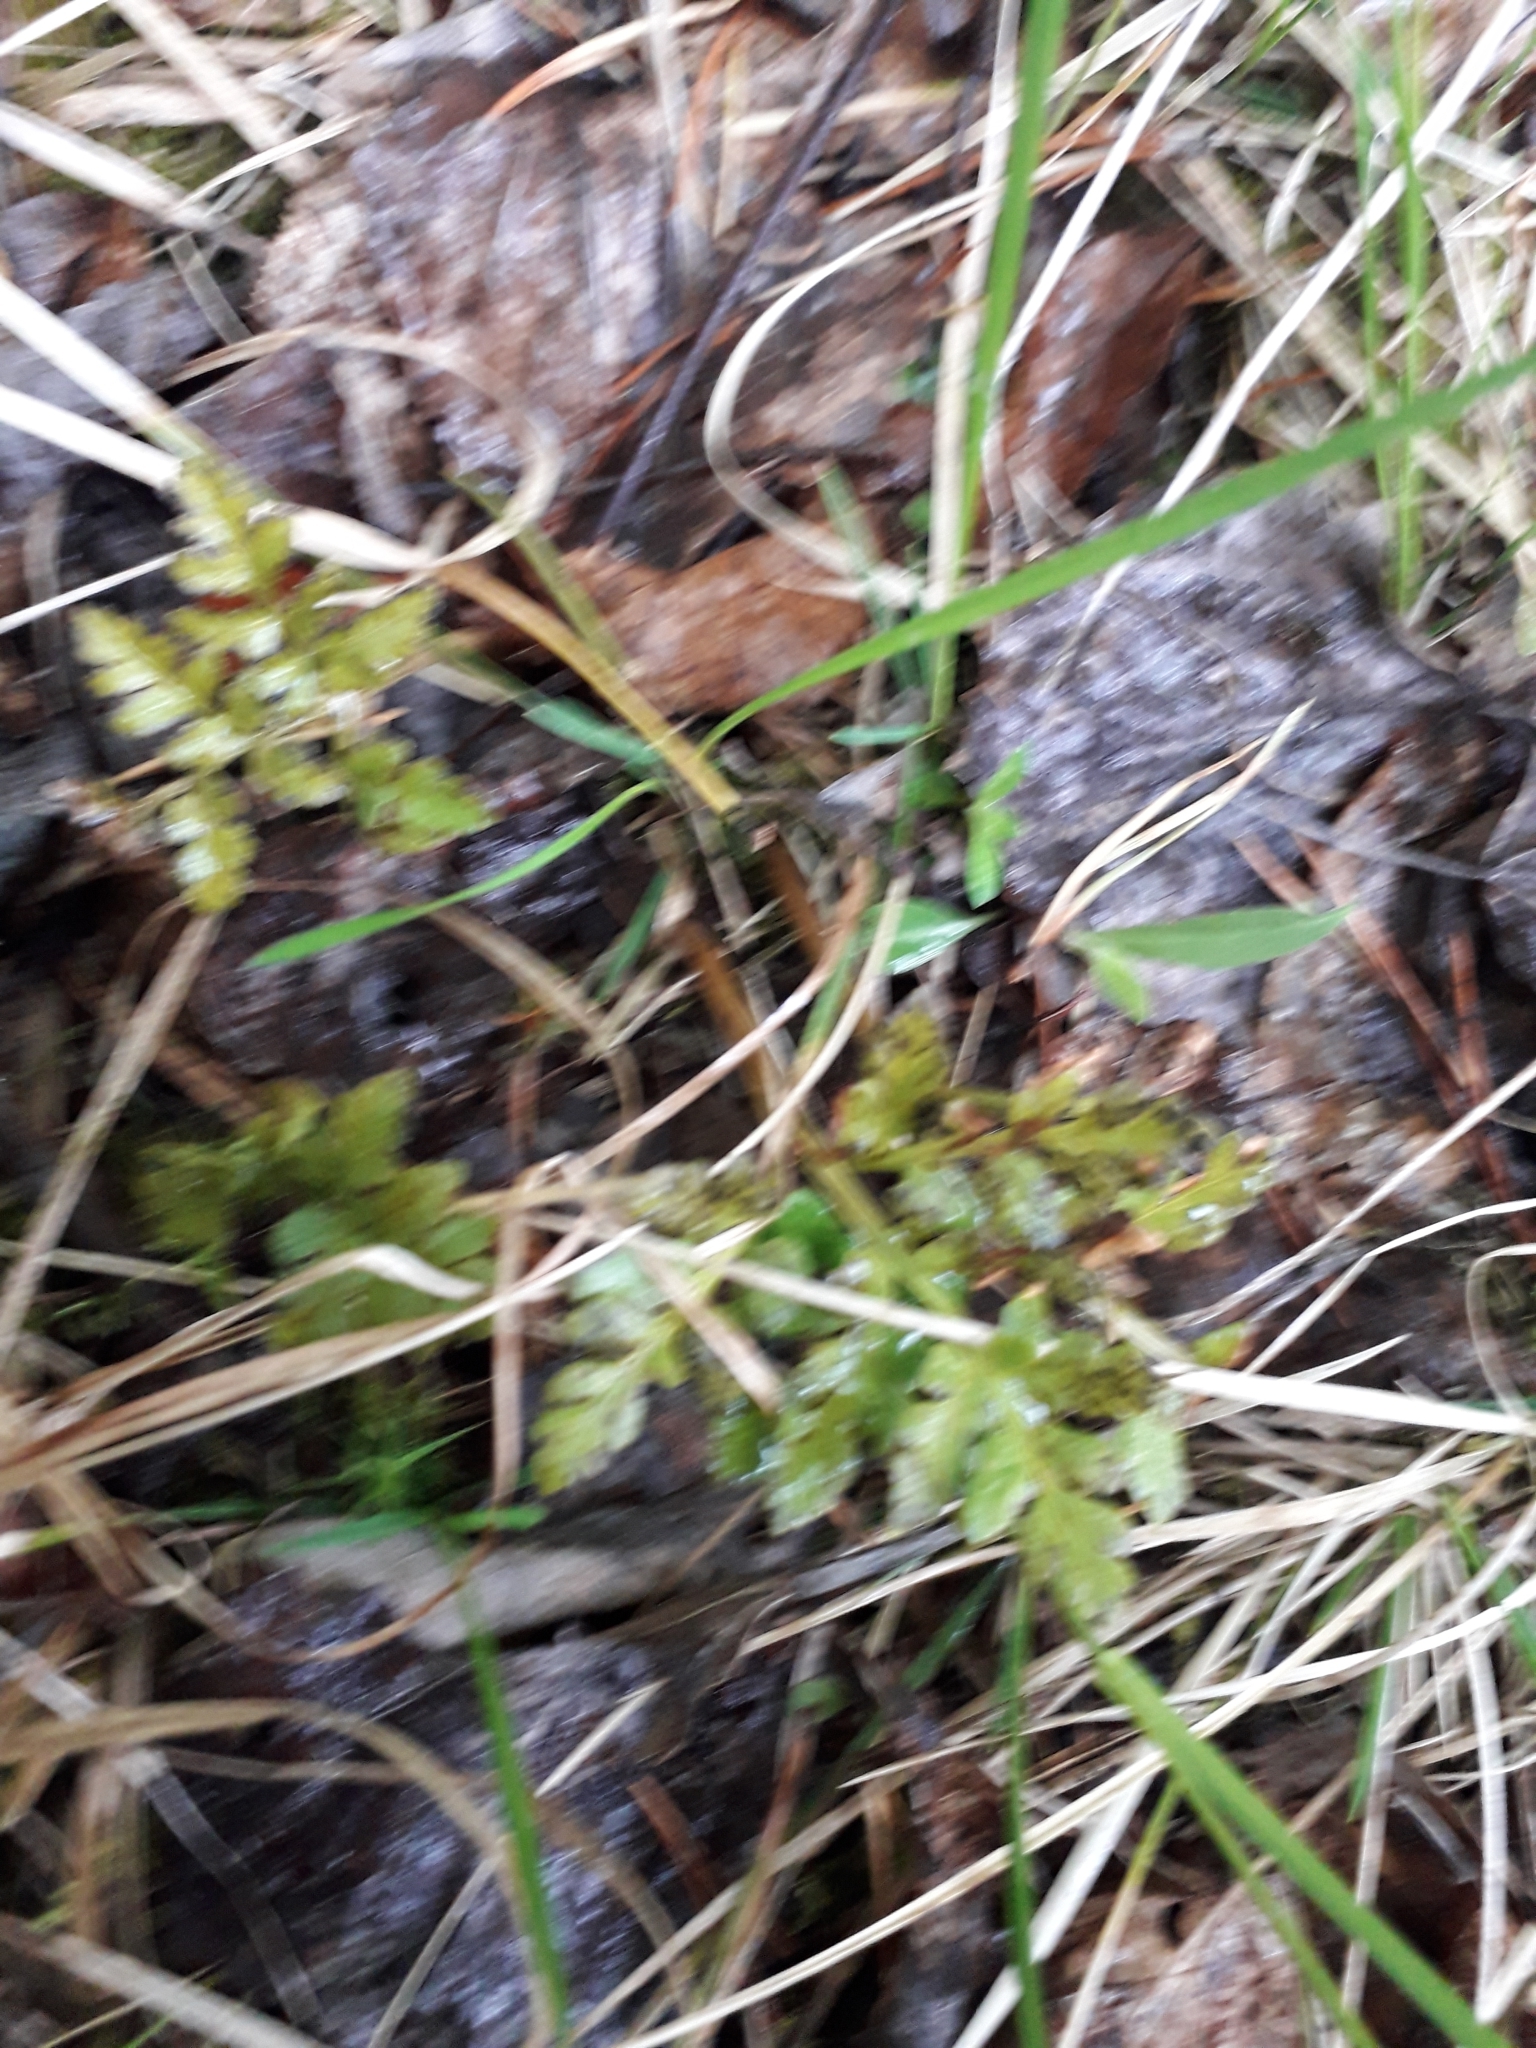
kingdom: Plantae
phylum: Tracheophyta
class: Polypodiopsida
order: Ophioglossales
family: Ophioglossaceae
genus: Sceptridium
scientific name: Sceptridium multifidum
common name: Leathery grape fern
